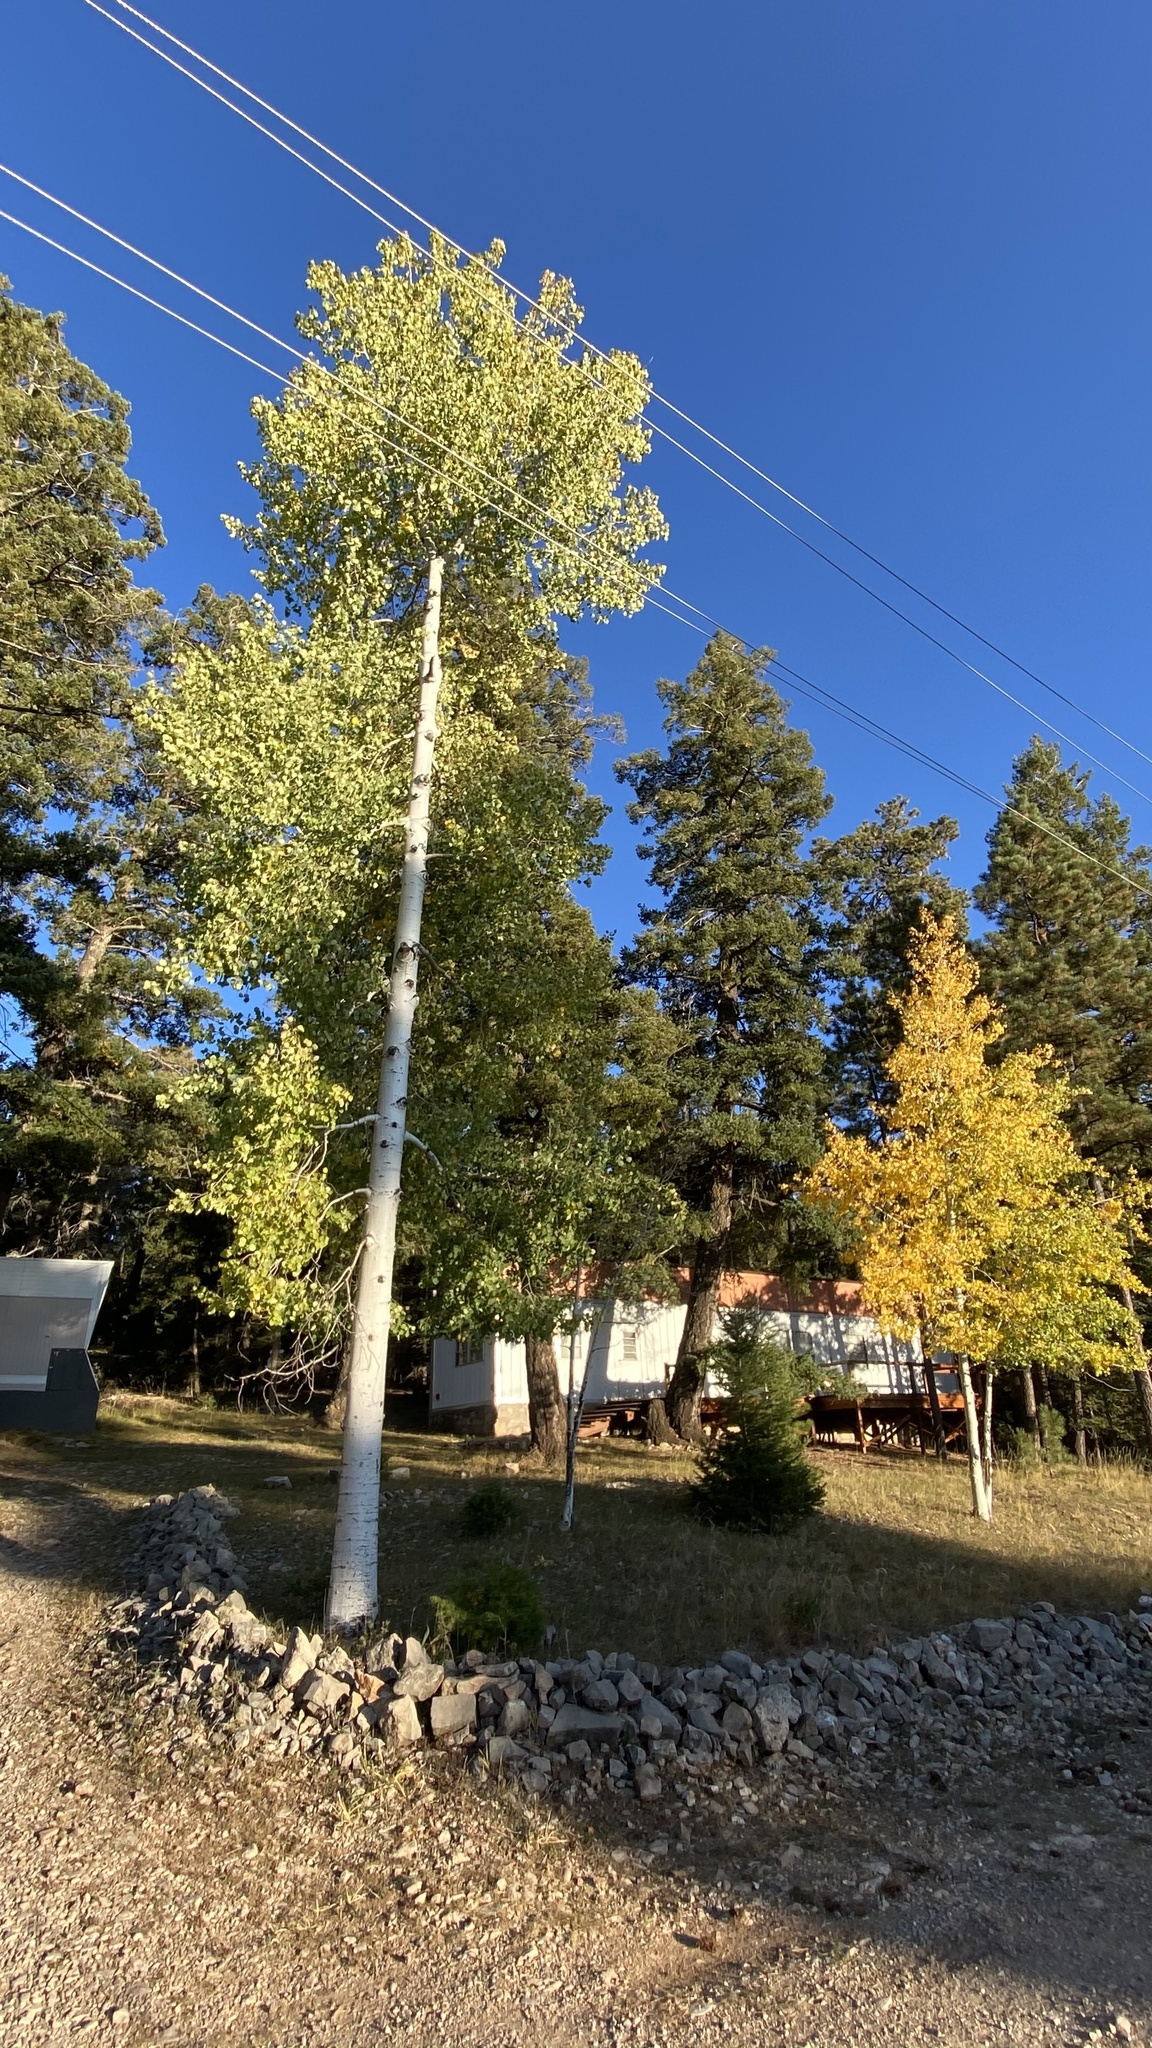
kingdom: Plantae
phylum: Tracheophyta
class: Magnoliopsida
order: Malpighiales
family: Salicaceae
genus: Populus
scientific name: Populus tremuloides
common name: Quaking aspen
